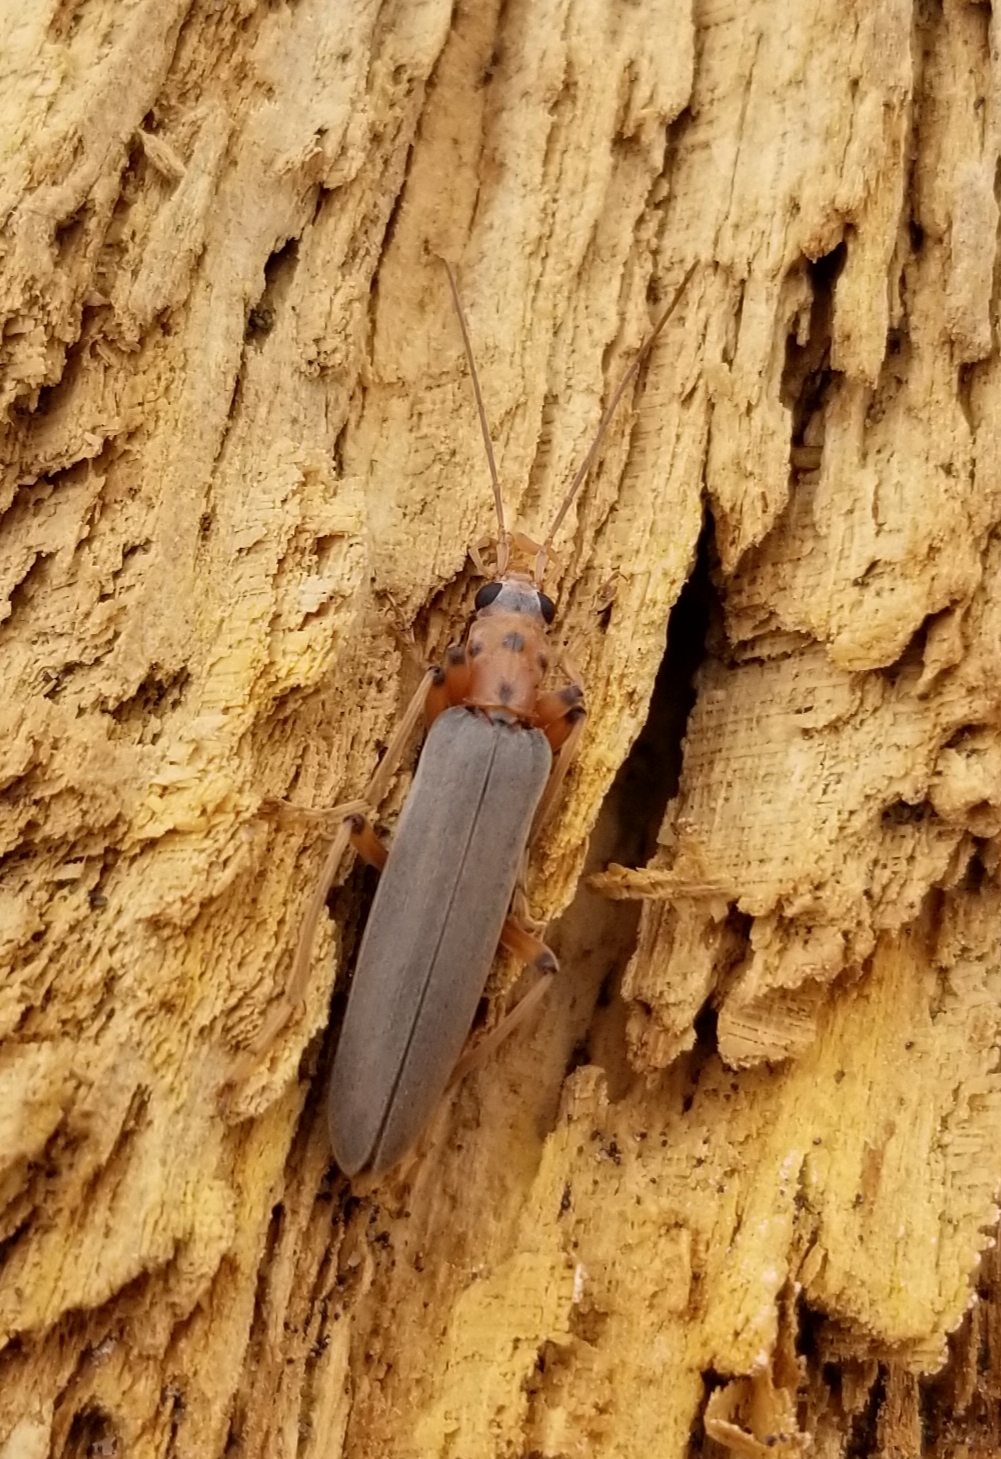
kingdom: Animalia
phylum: Arthropoda
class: Insecta
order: Coleoptera
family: Oedemeridae
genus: Copidita
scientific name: Copidita quadrimaculata
